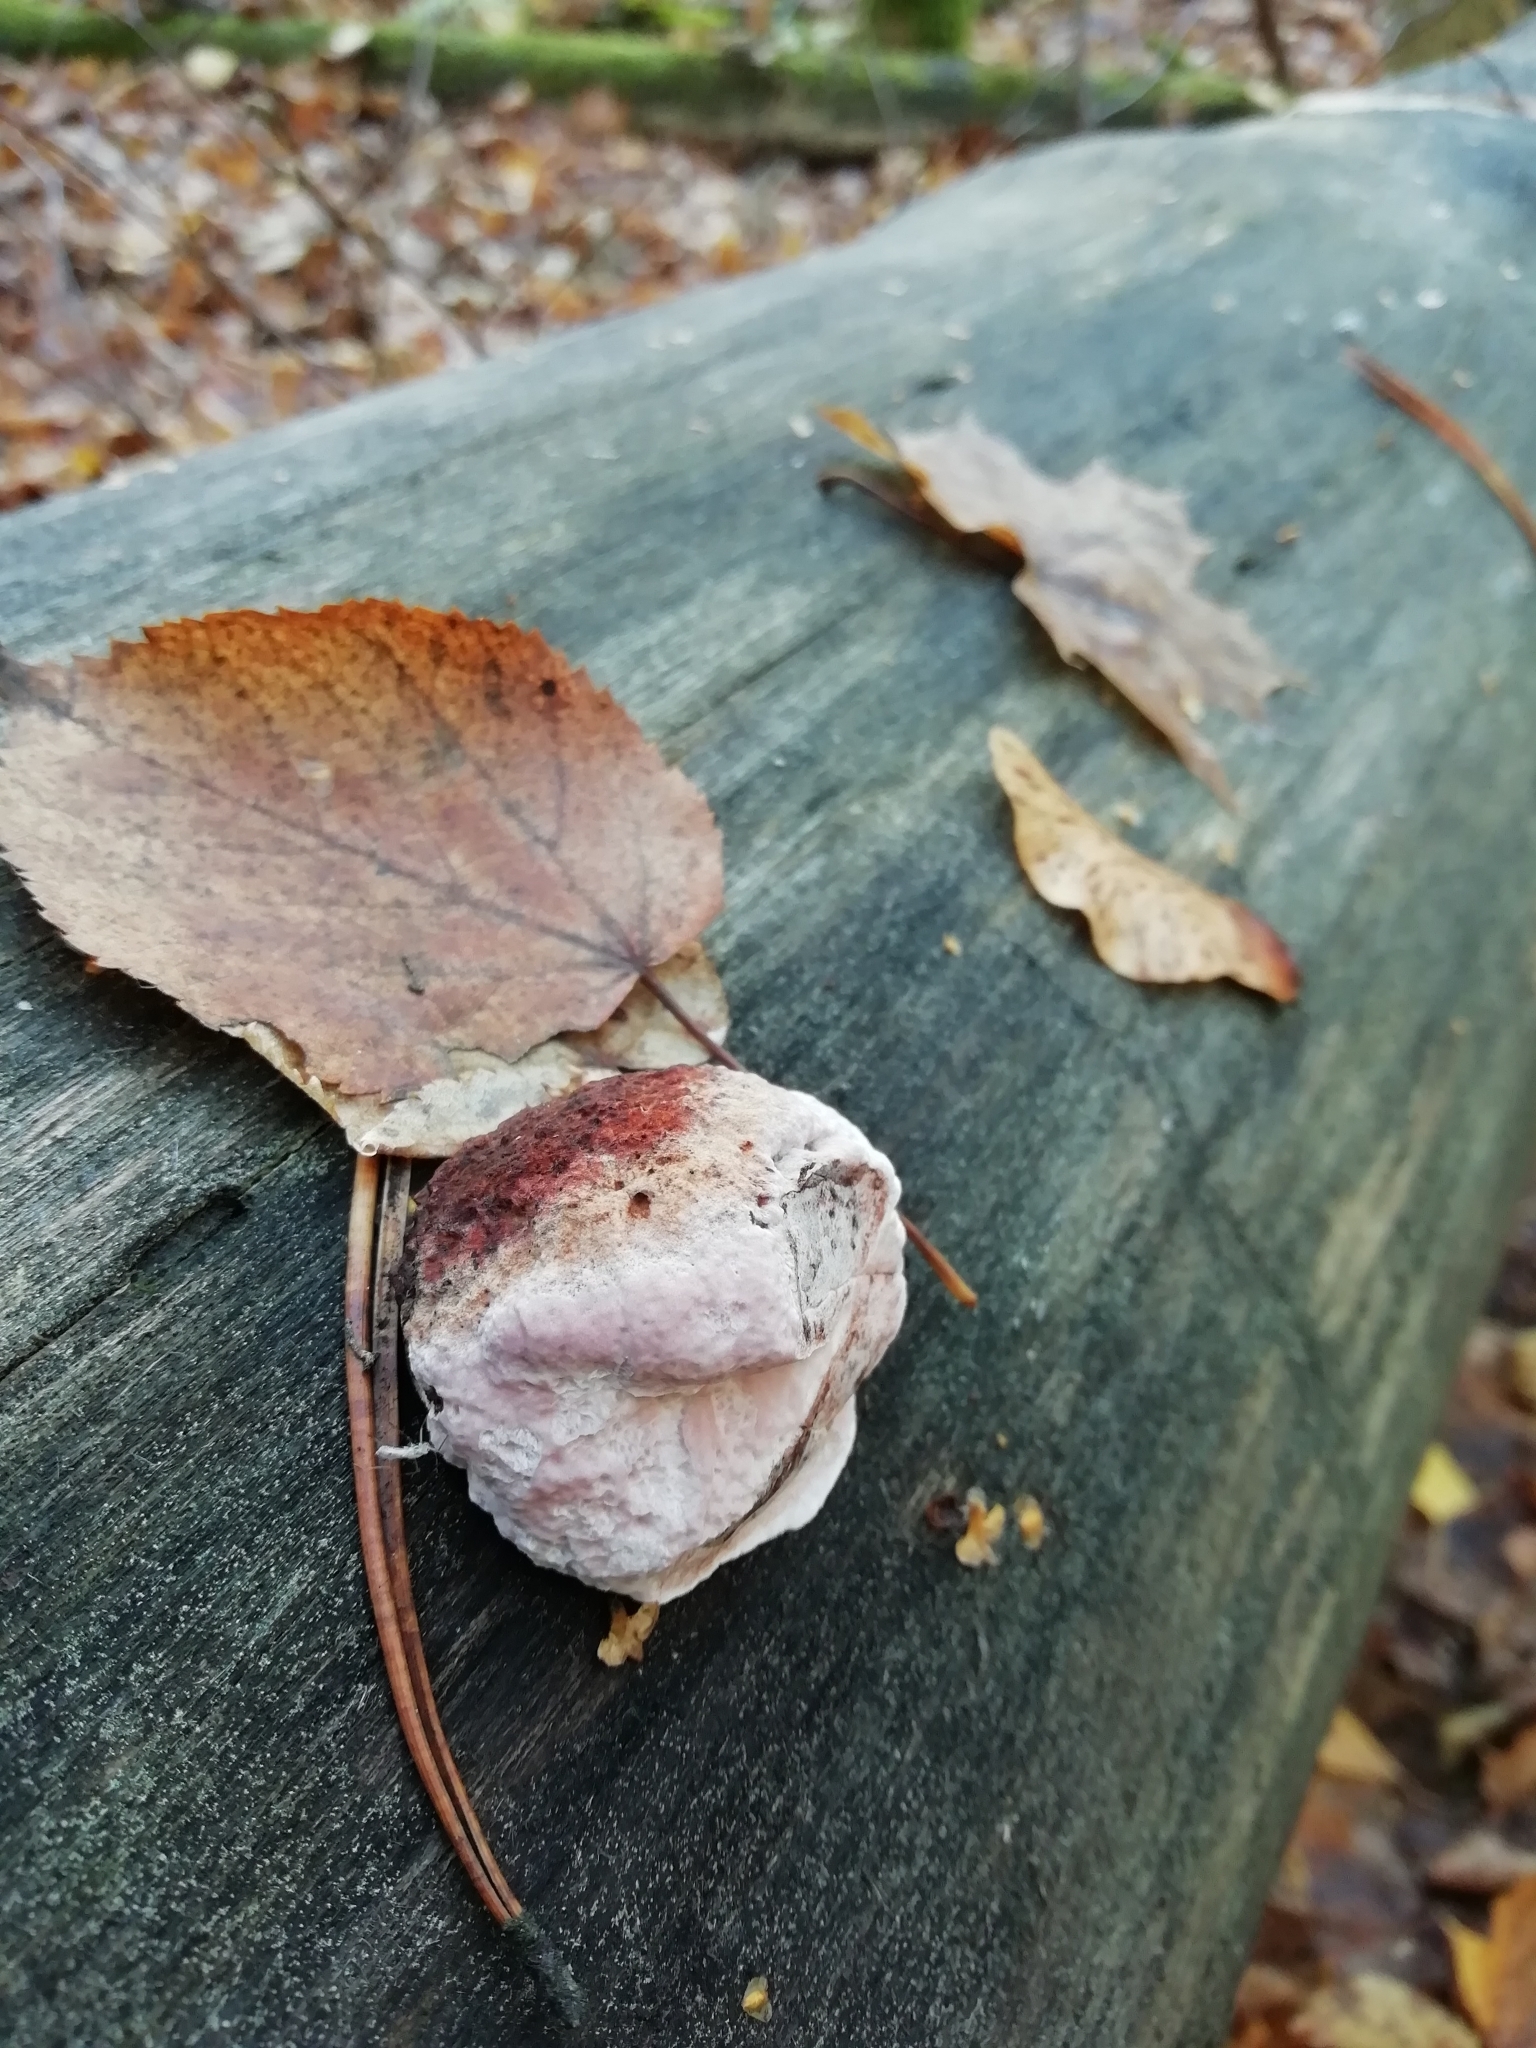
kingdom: Fungi
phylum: Basidiomycota
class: Agaricomycetes
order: Polyporales
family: Fomitopsidaceae
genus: Rhodofomes
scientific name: Rhodofomes roseus
